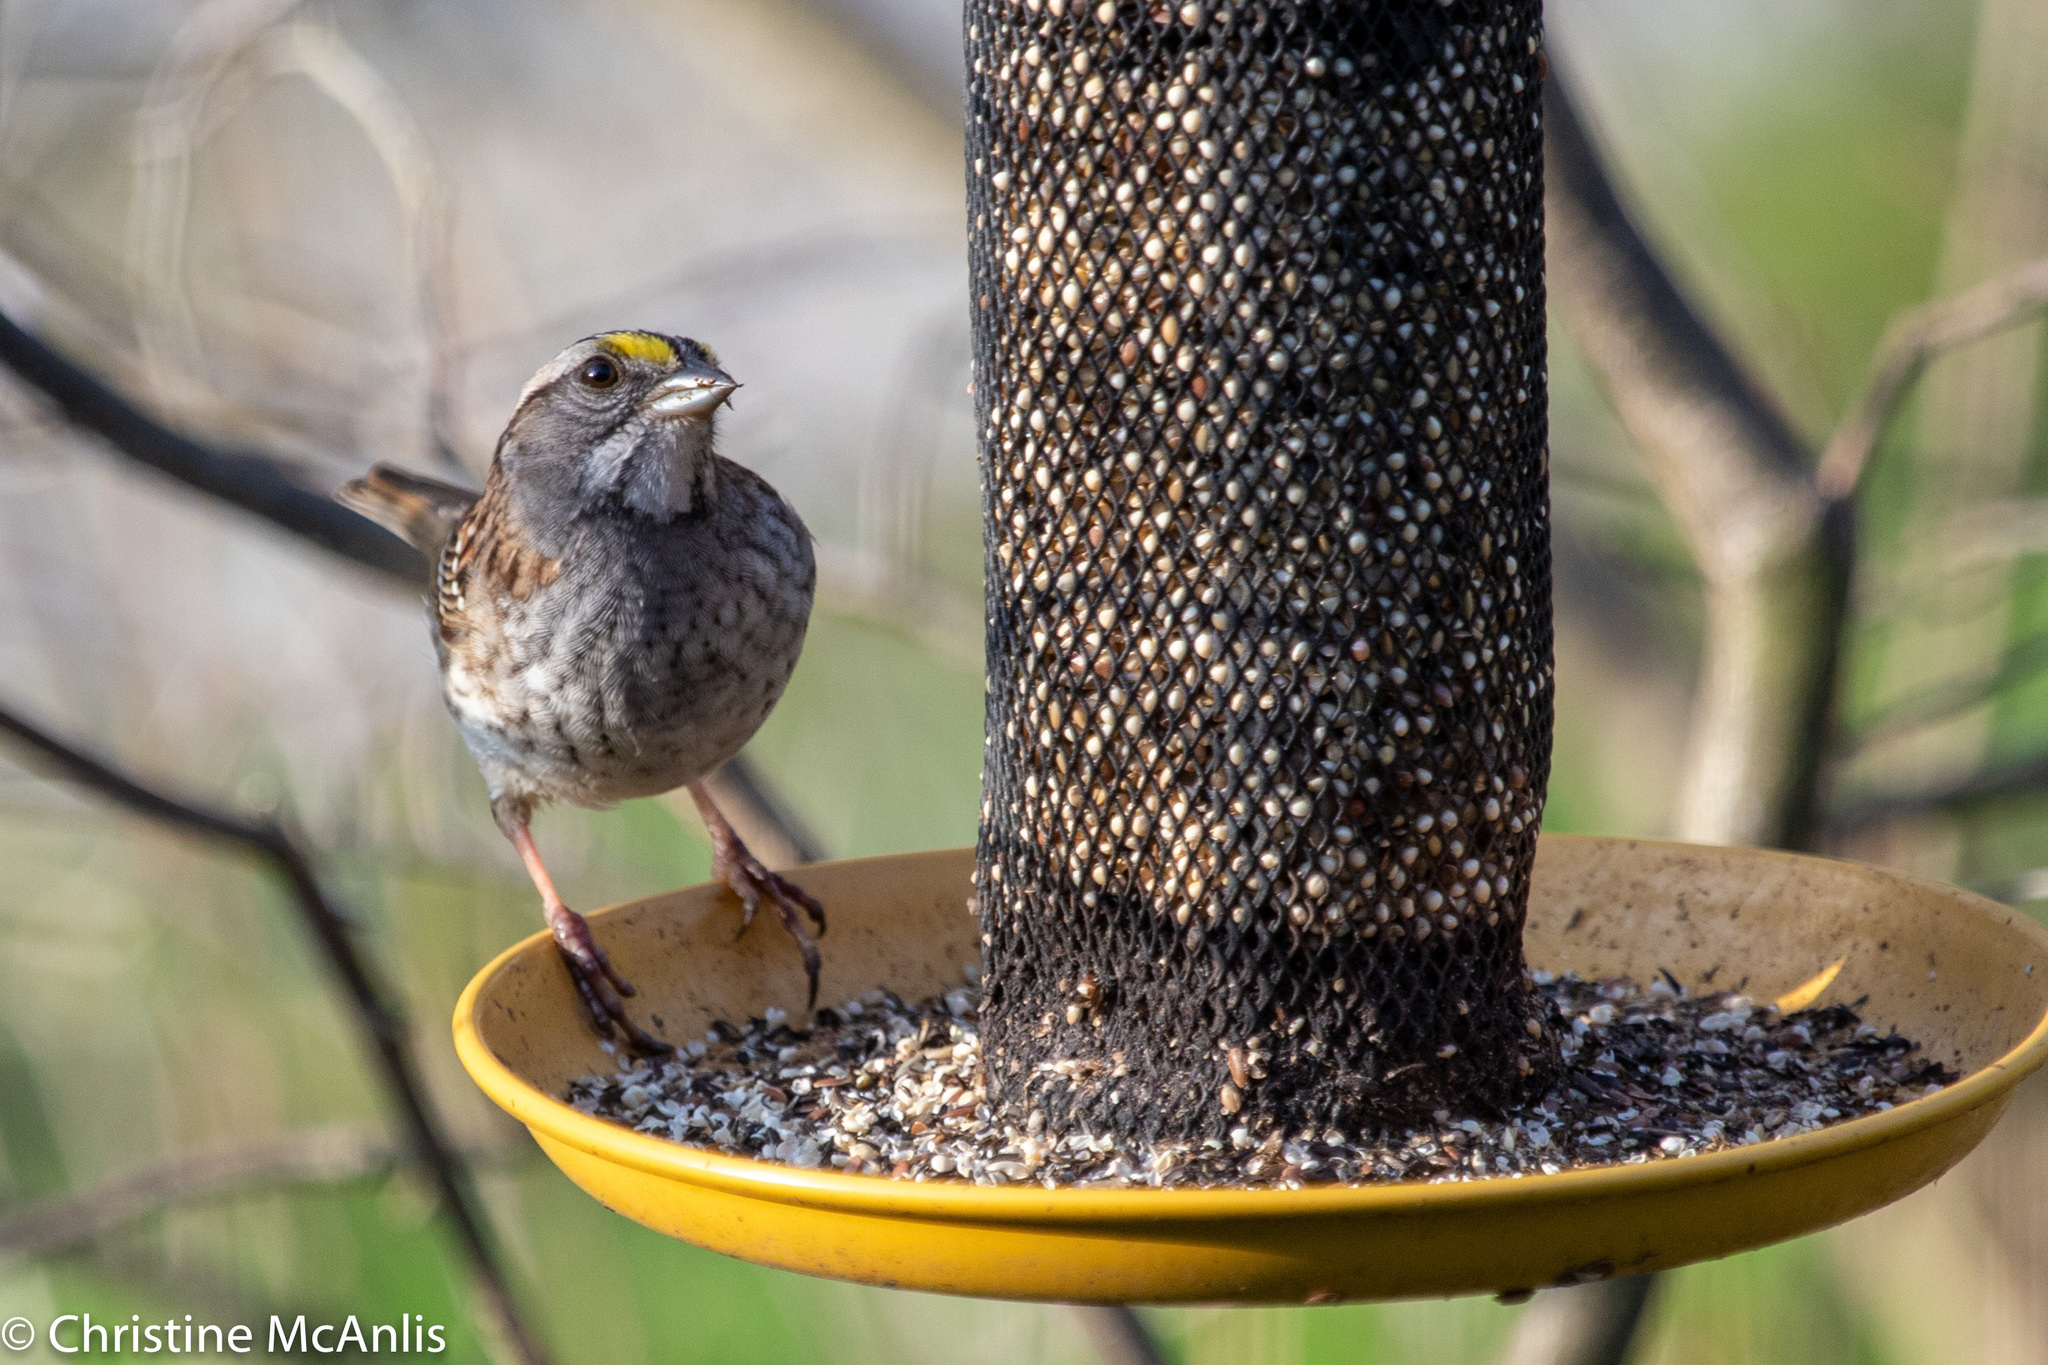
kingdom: Animalia
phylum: Chordata
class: Aves
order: Passeriformes
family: Passerellidae
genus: Zonotrichia
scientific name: Zonotrichia albicollis
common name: White-throated sparrow
